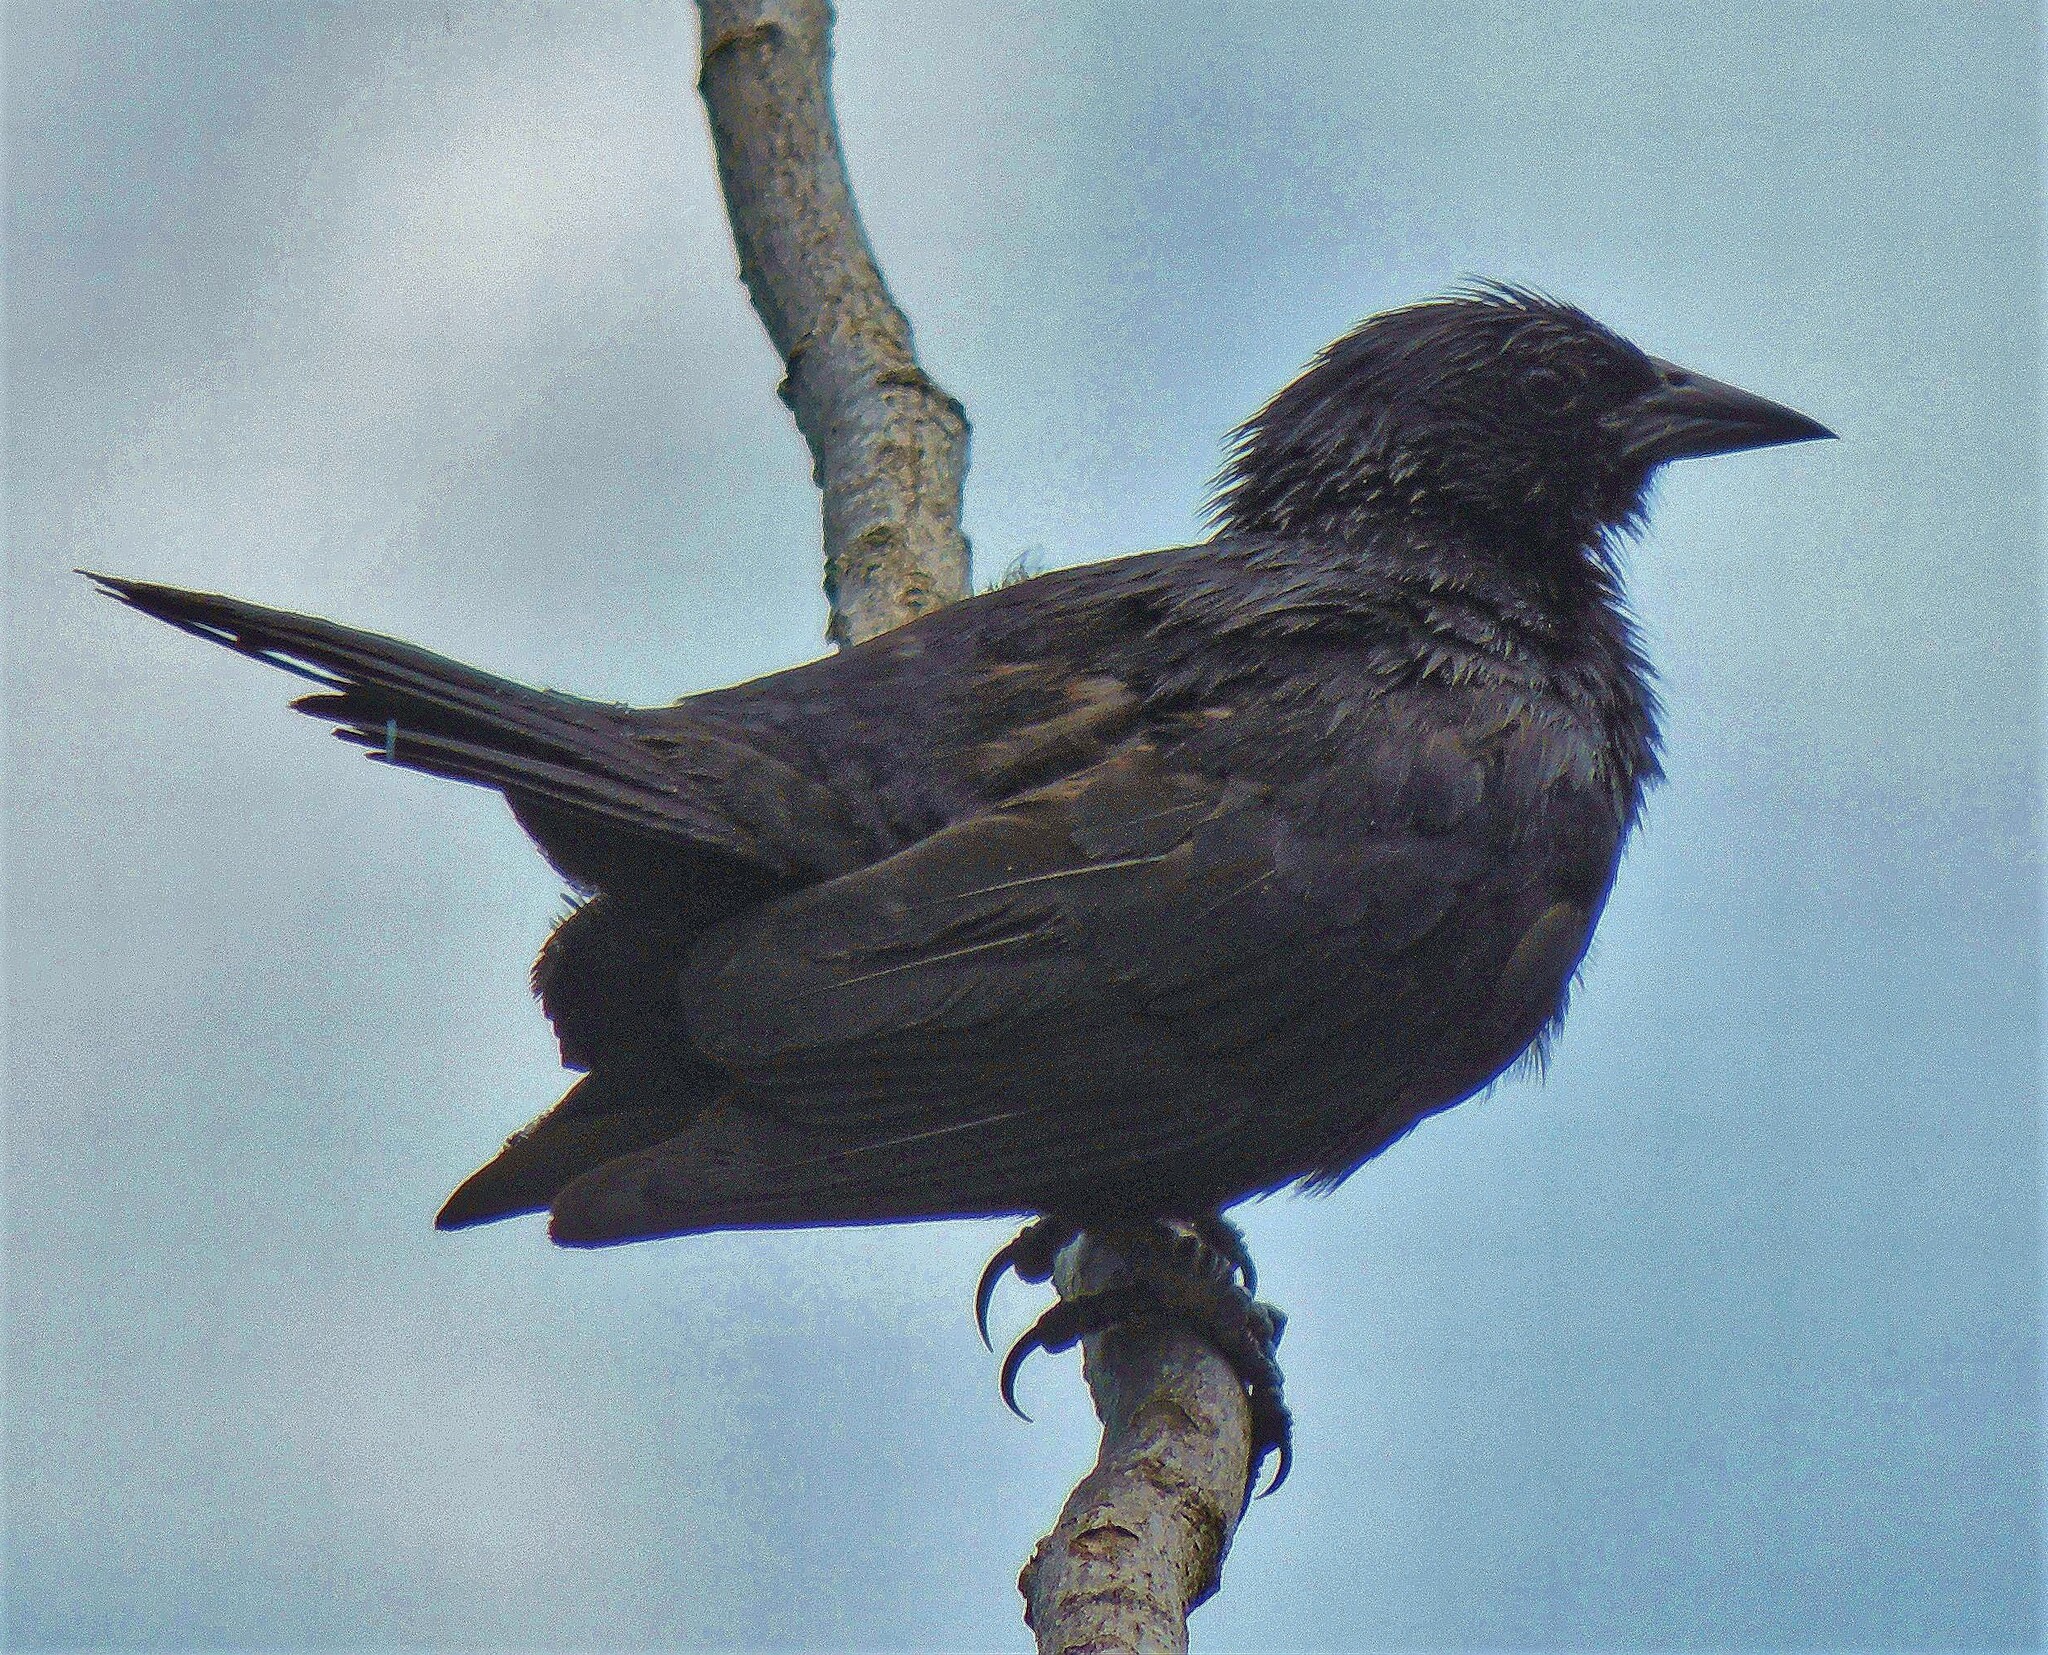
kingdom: Animalia
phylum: Chordata
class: Aves
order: Passeriformes
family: Icteridae
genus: Gnorimopsar
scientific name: Gnorimopsar chopi
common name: Chopi blackbird
